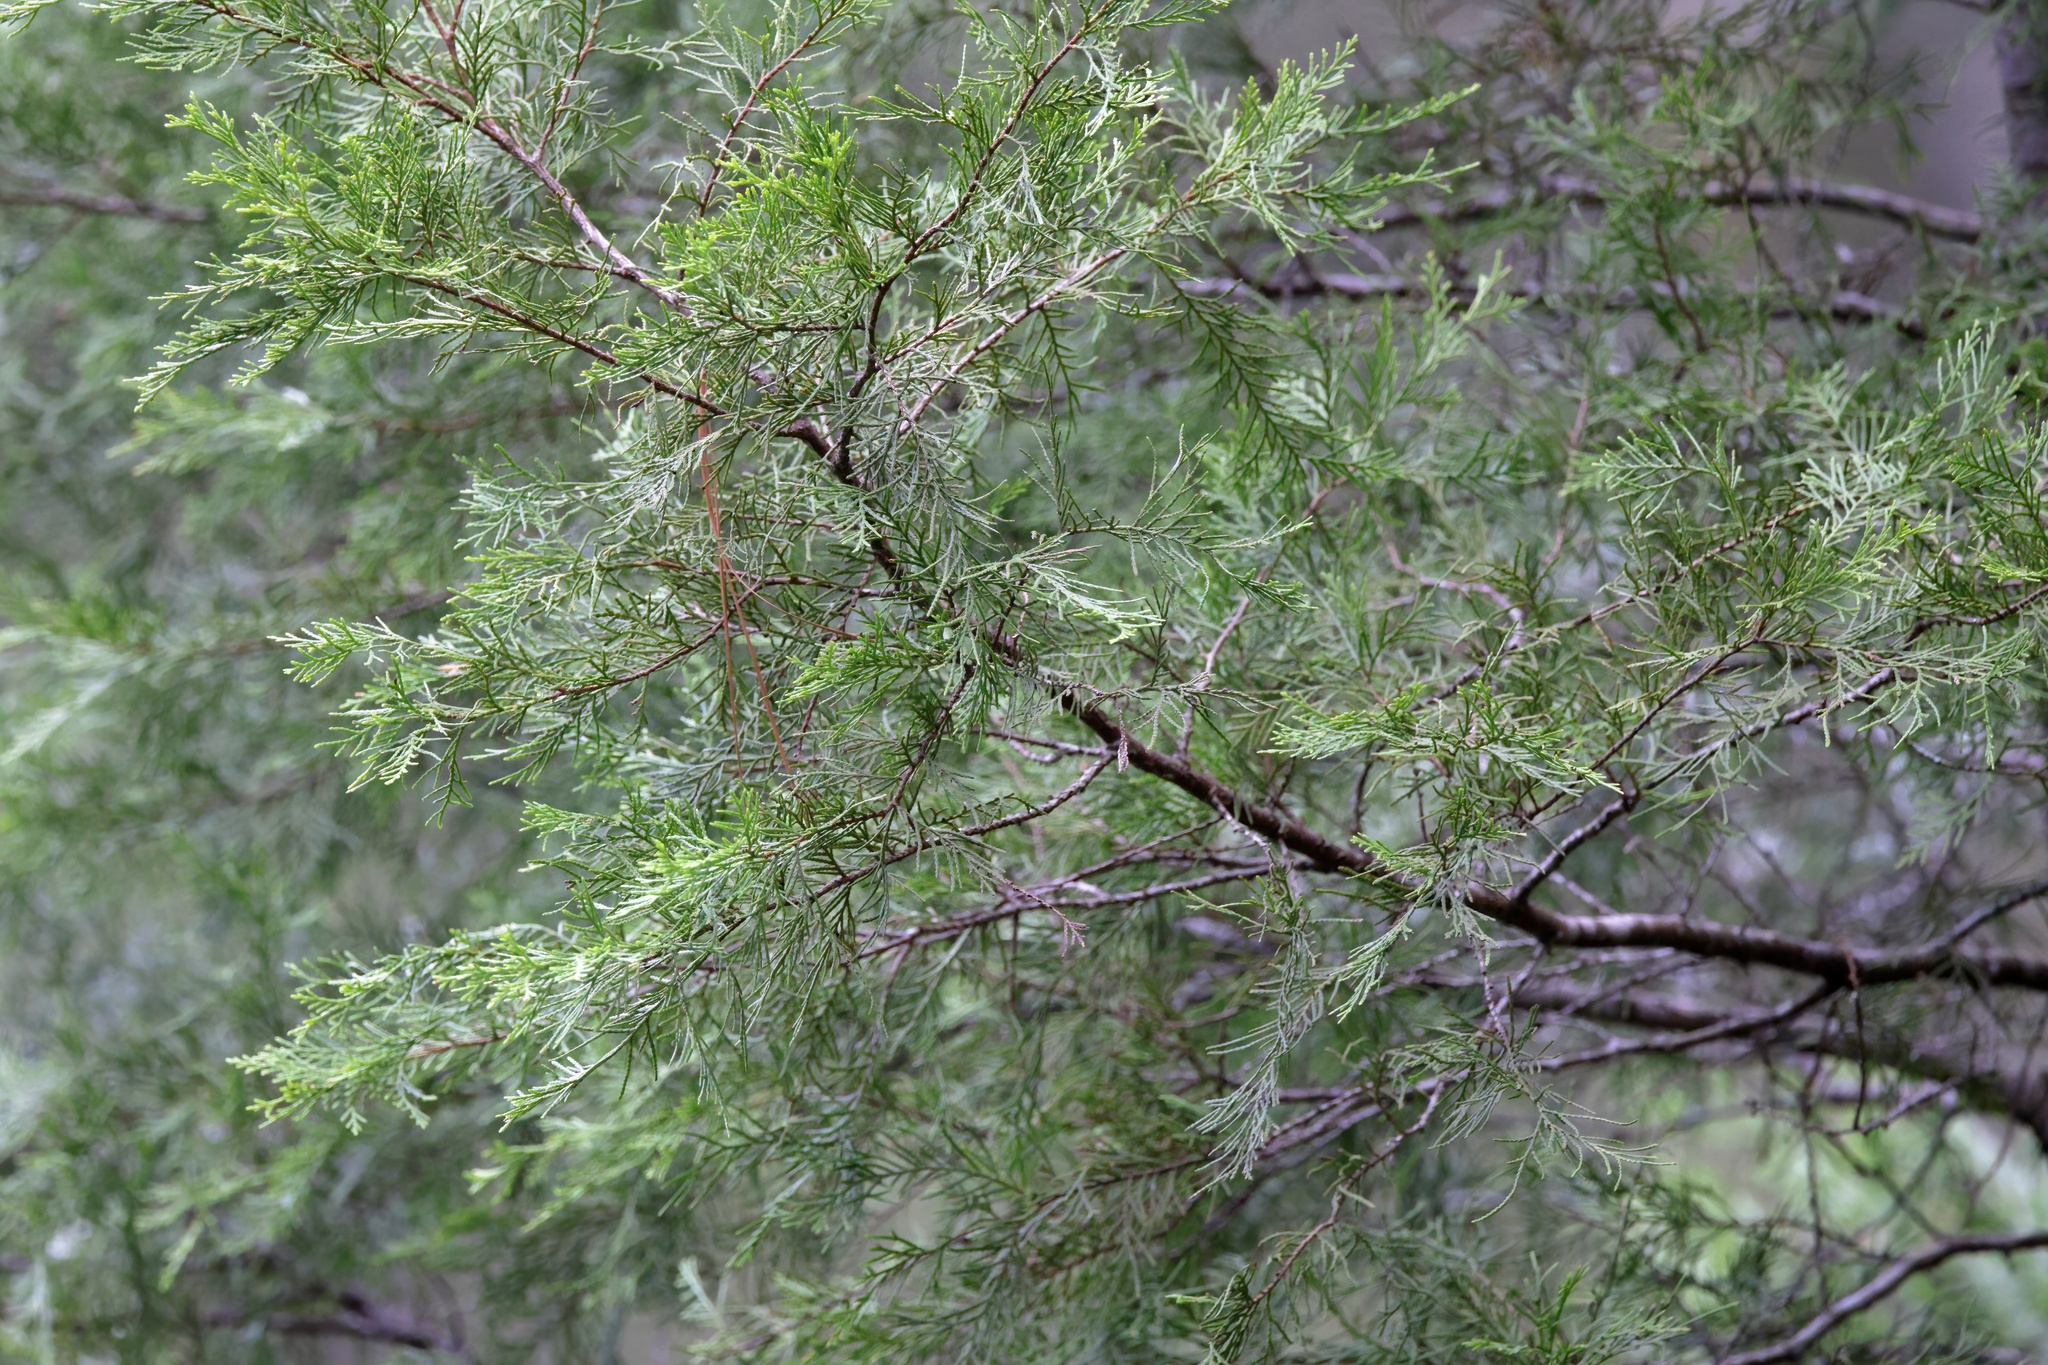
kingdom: Plantae
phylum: Tracheophyta
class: Pinopsida
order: Pinales
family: Cupressaceae
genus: Chamaecyparis
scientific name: Chamaecyparis thyoides
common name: Atlantic white cedar
